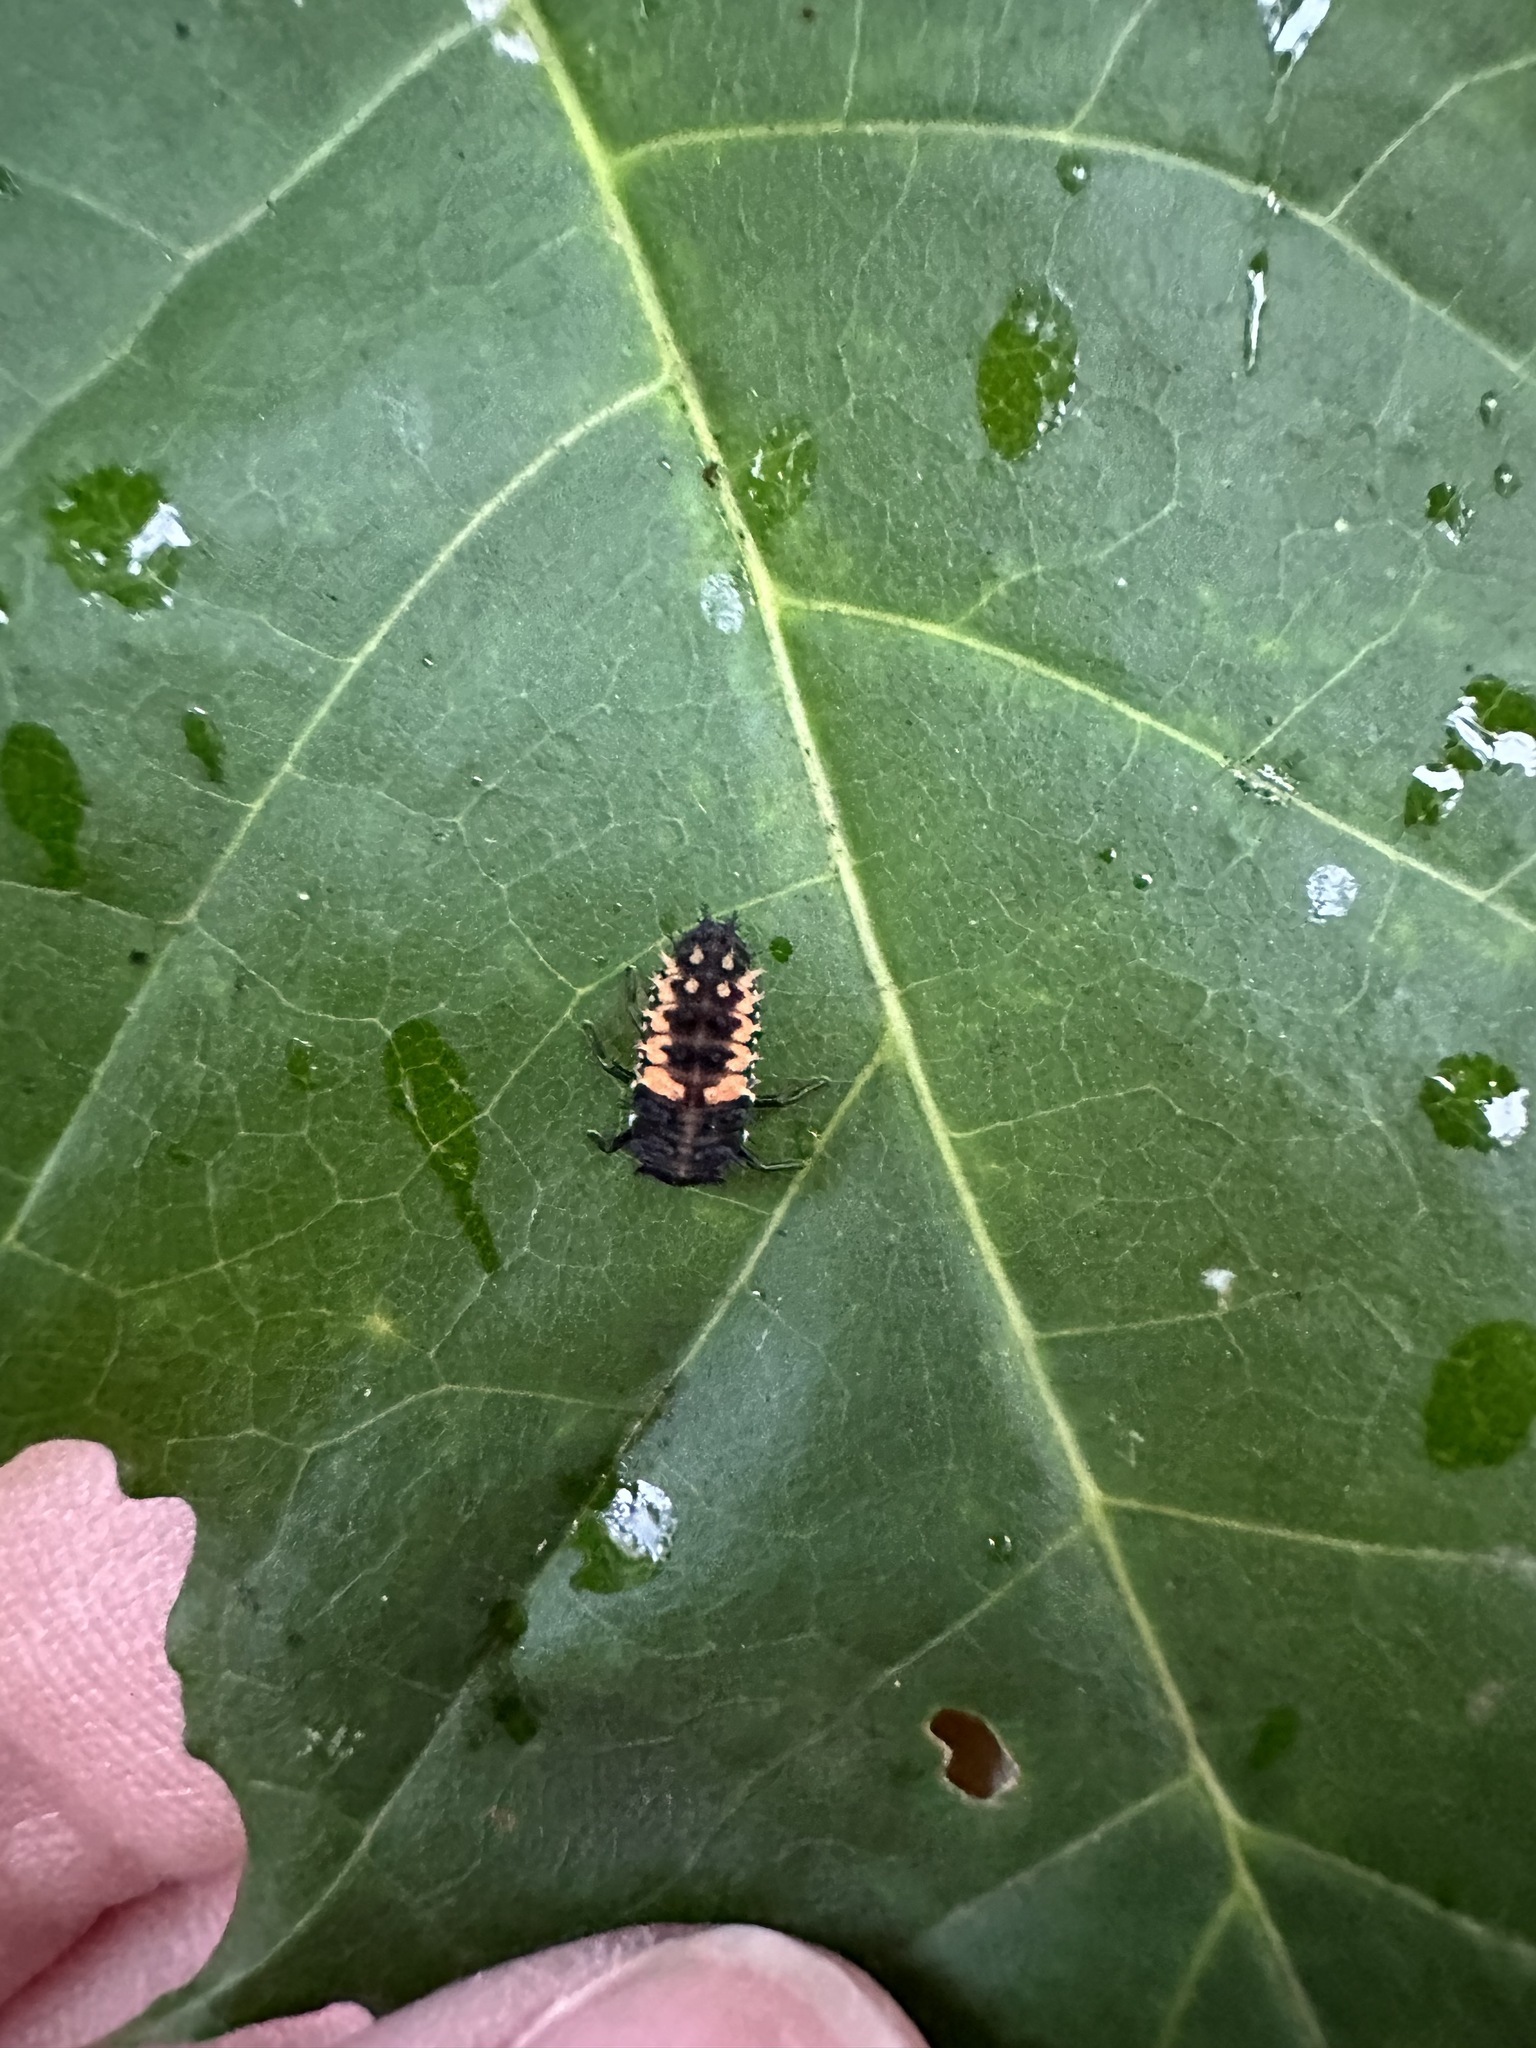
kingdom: Animalia
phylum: Arthropoda
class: Insecta
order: Coleoptera
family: Coccinellidae
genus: Harmonia
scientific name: Harmonia axyridis
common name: Harlequin ladybird
